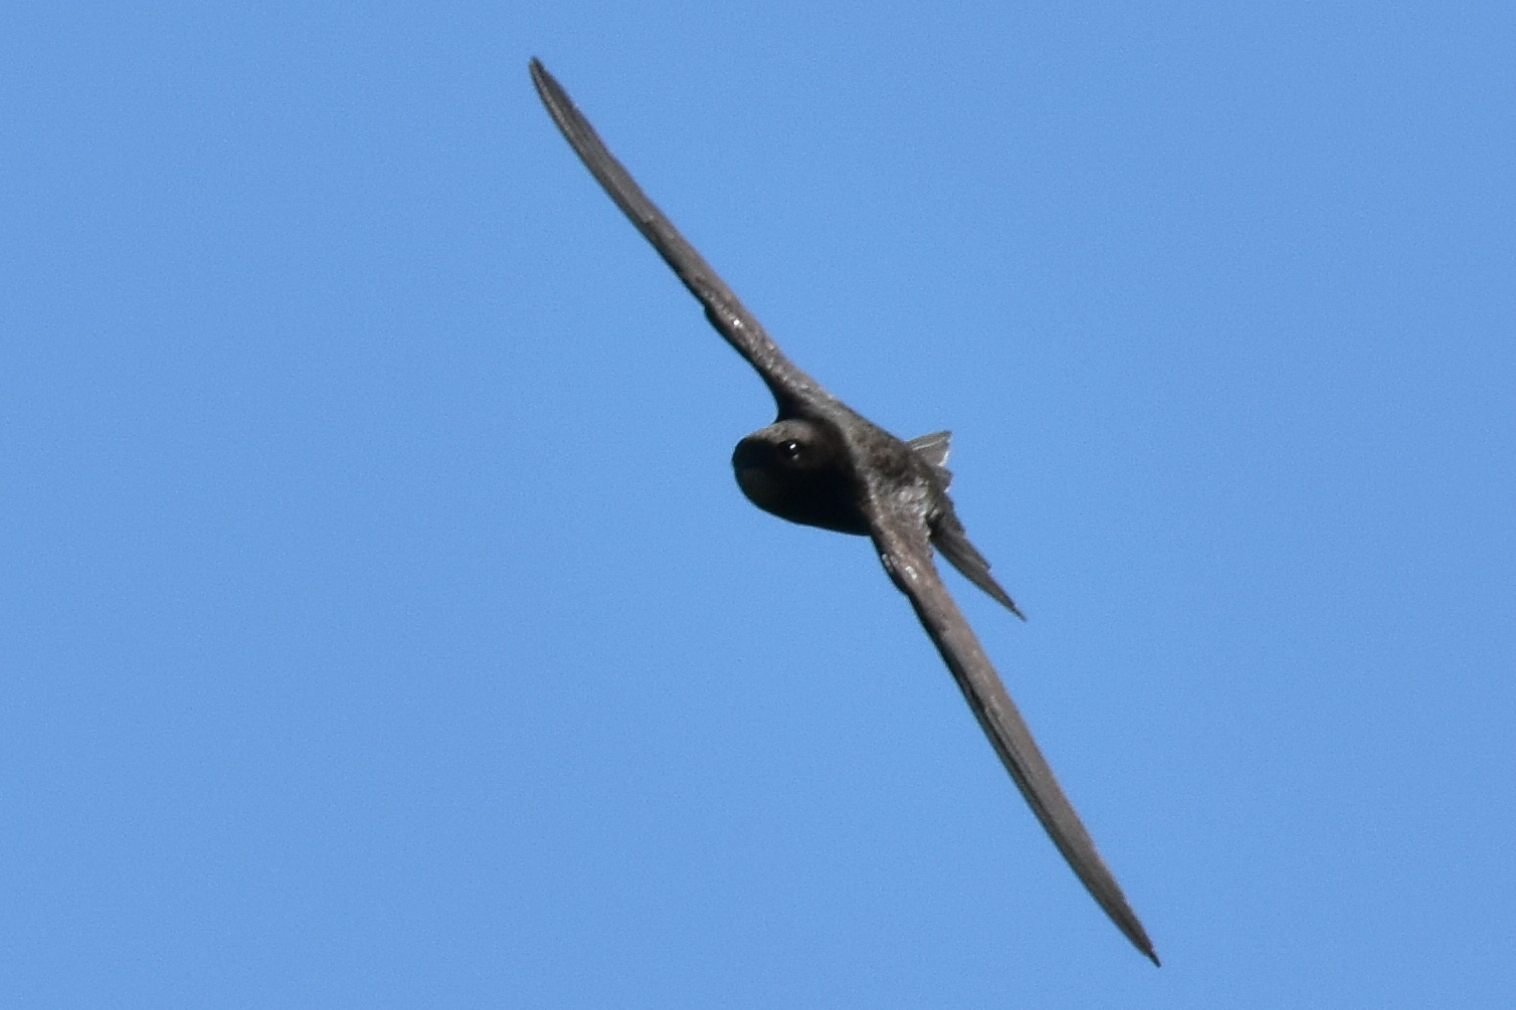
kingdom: Animalia
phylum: Chordata
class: Aves
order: Apodiformes
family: Apodidae
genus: Apus
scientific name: Apus apus
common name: Common swift
